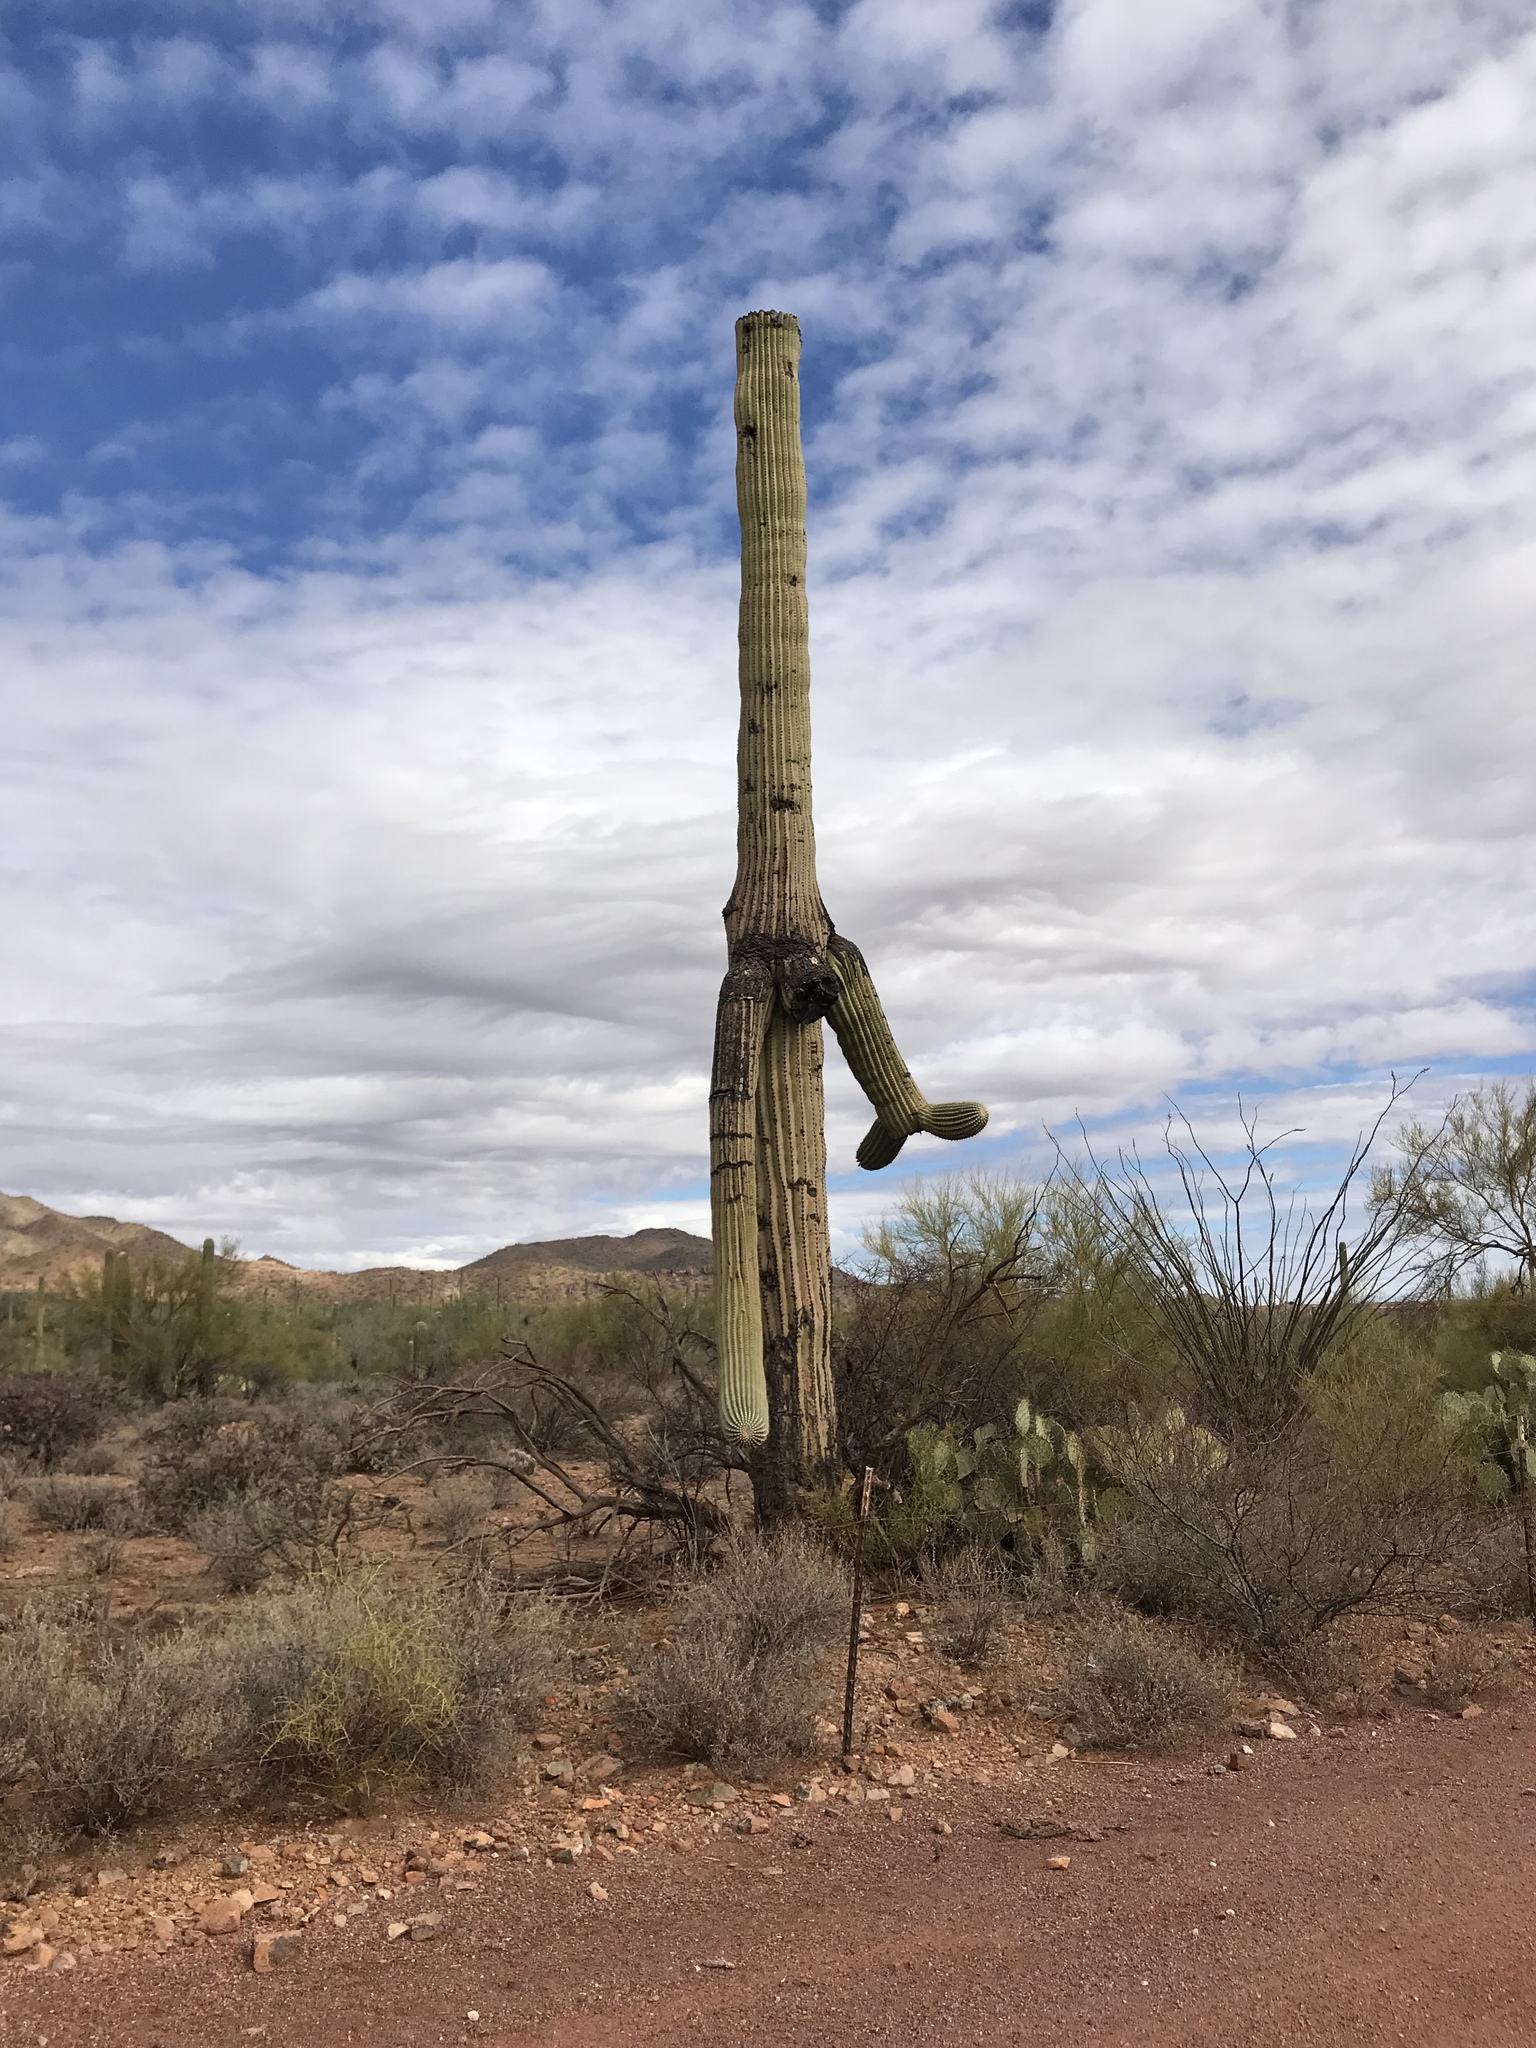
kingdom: Plantae
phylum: Tracheophyta
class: Magnoliopsida
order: Caryophyllales
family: Cactaceae
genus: Carnegiea
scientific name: Carnegiea gigantea
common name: Saguaro
